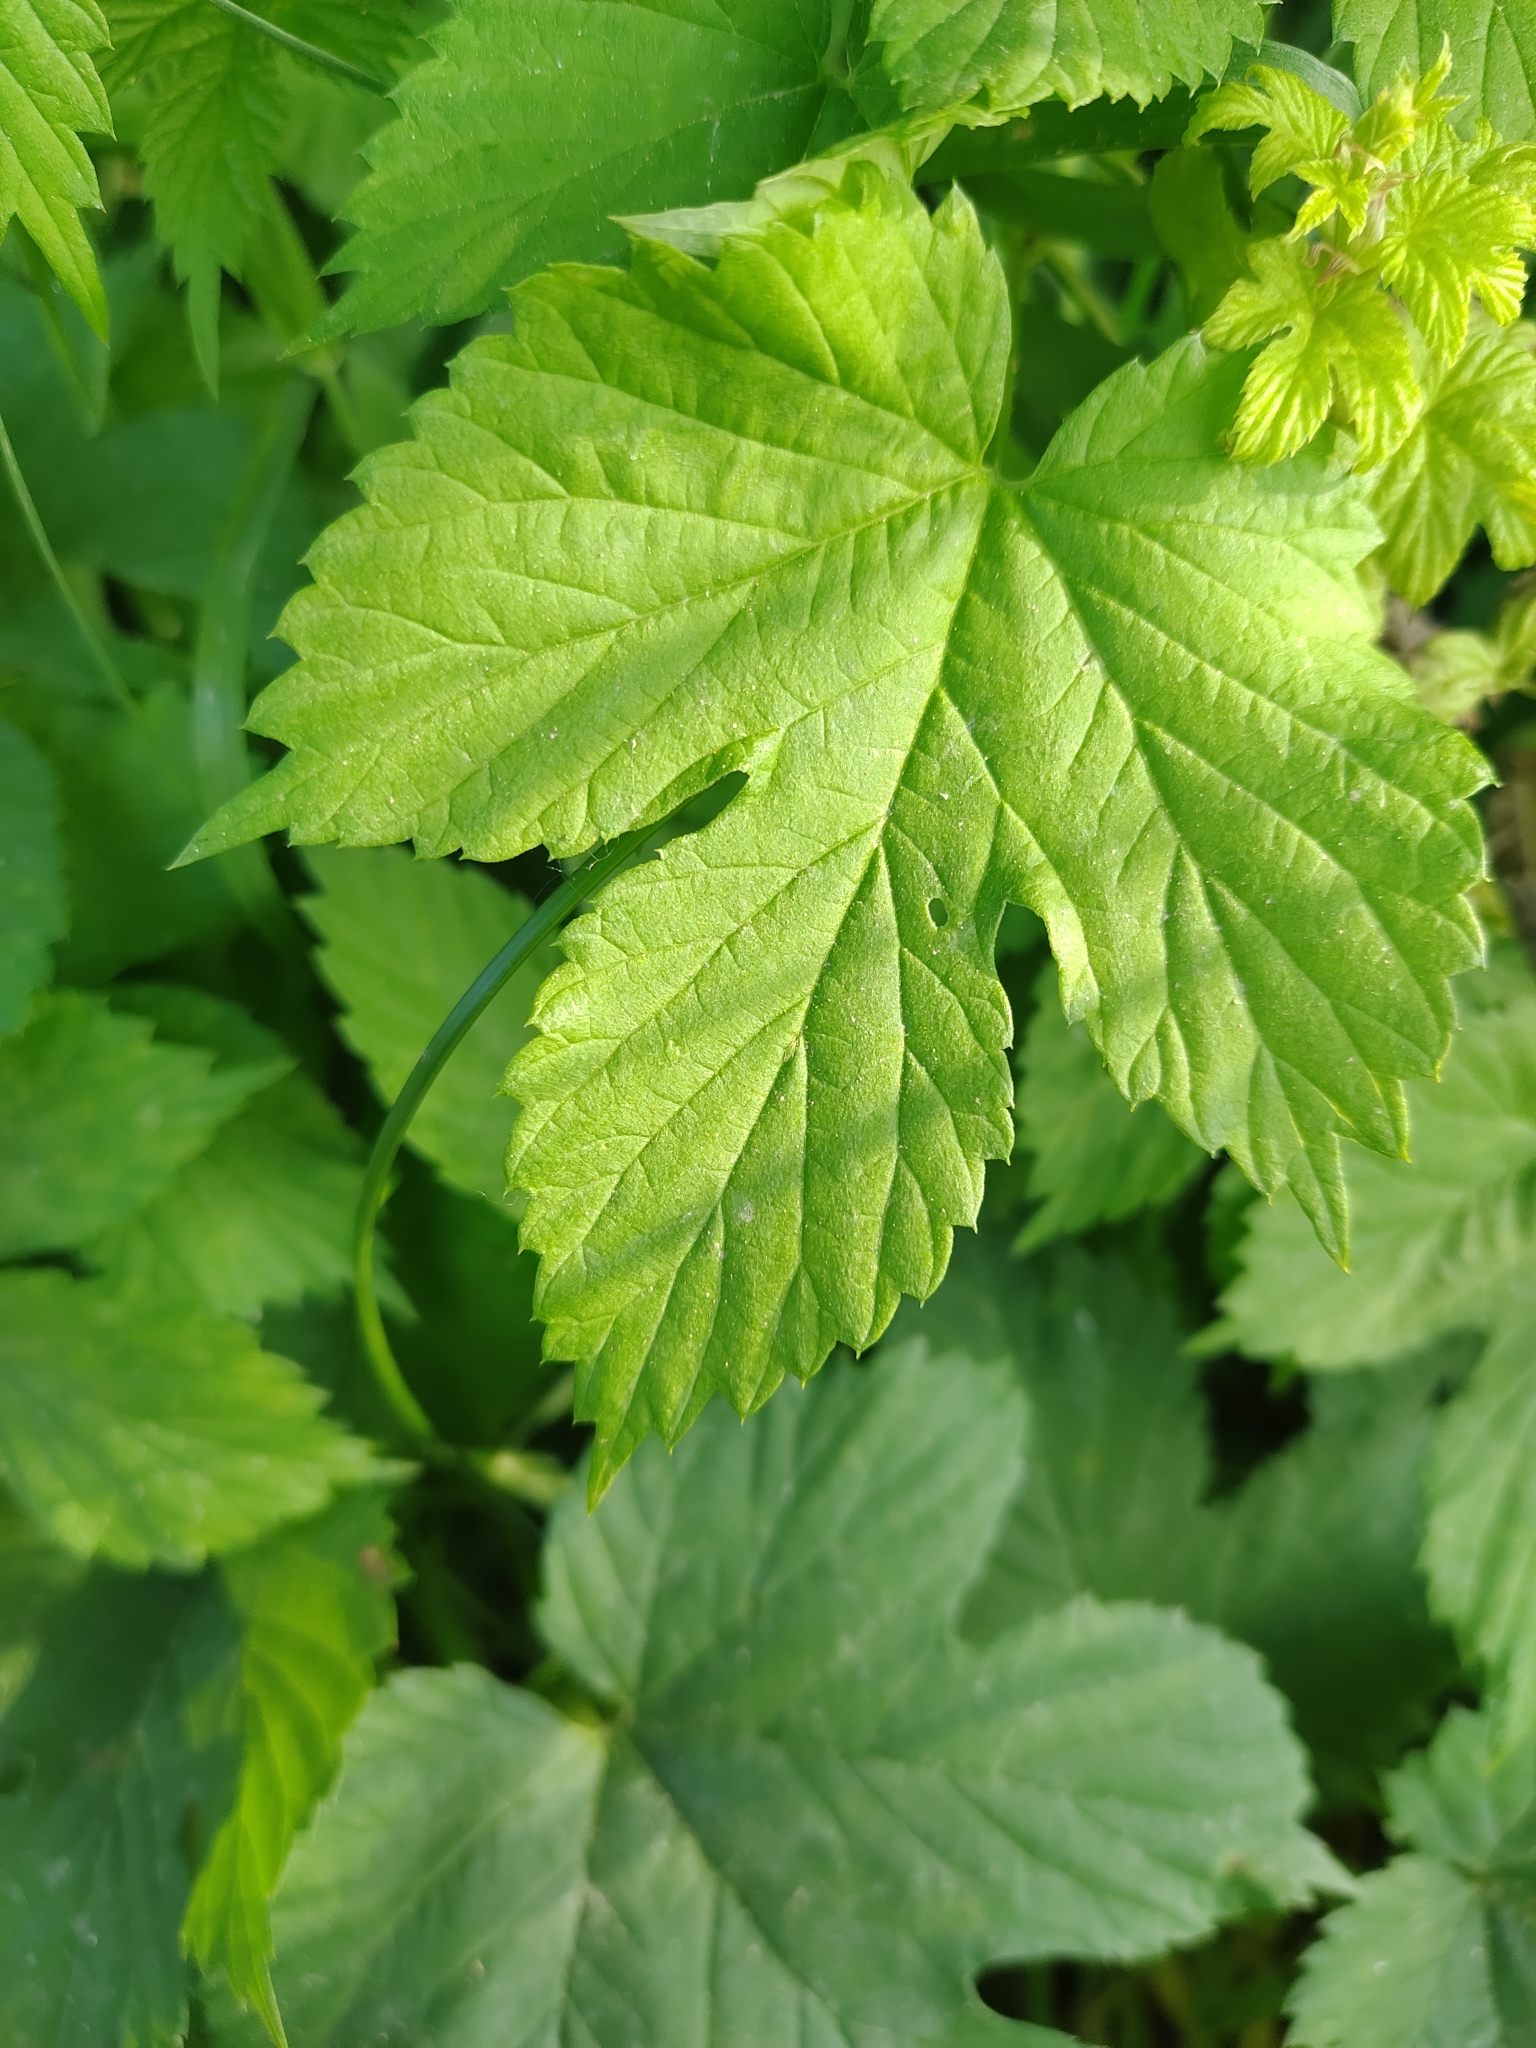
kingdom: Plantae
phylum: Tracheophyta
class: Magnoliopsida
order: Rosales
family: Cannabaceae
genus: Humulus
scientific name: Humulus lupulus
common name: Hop
